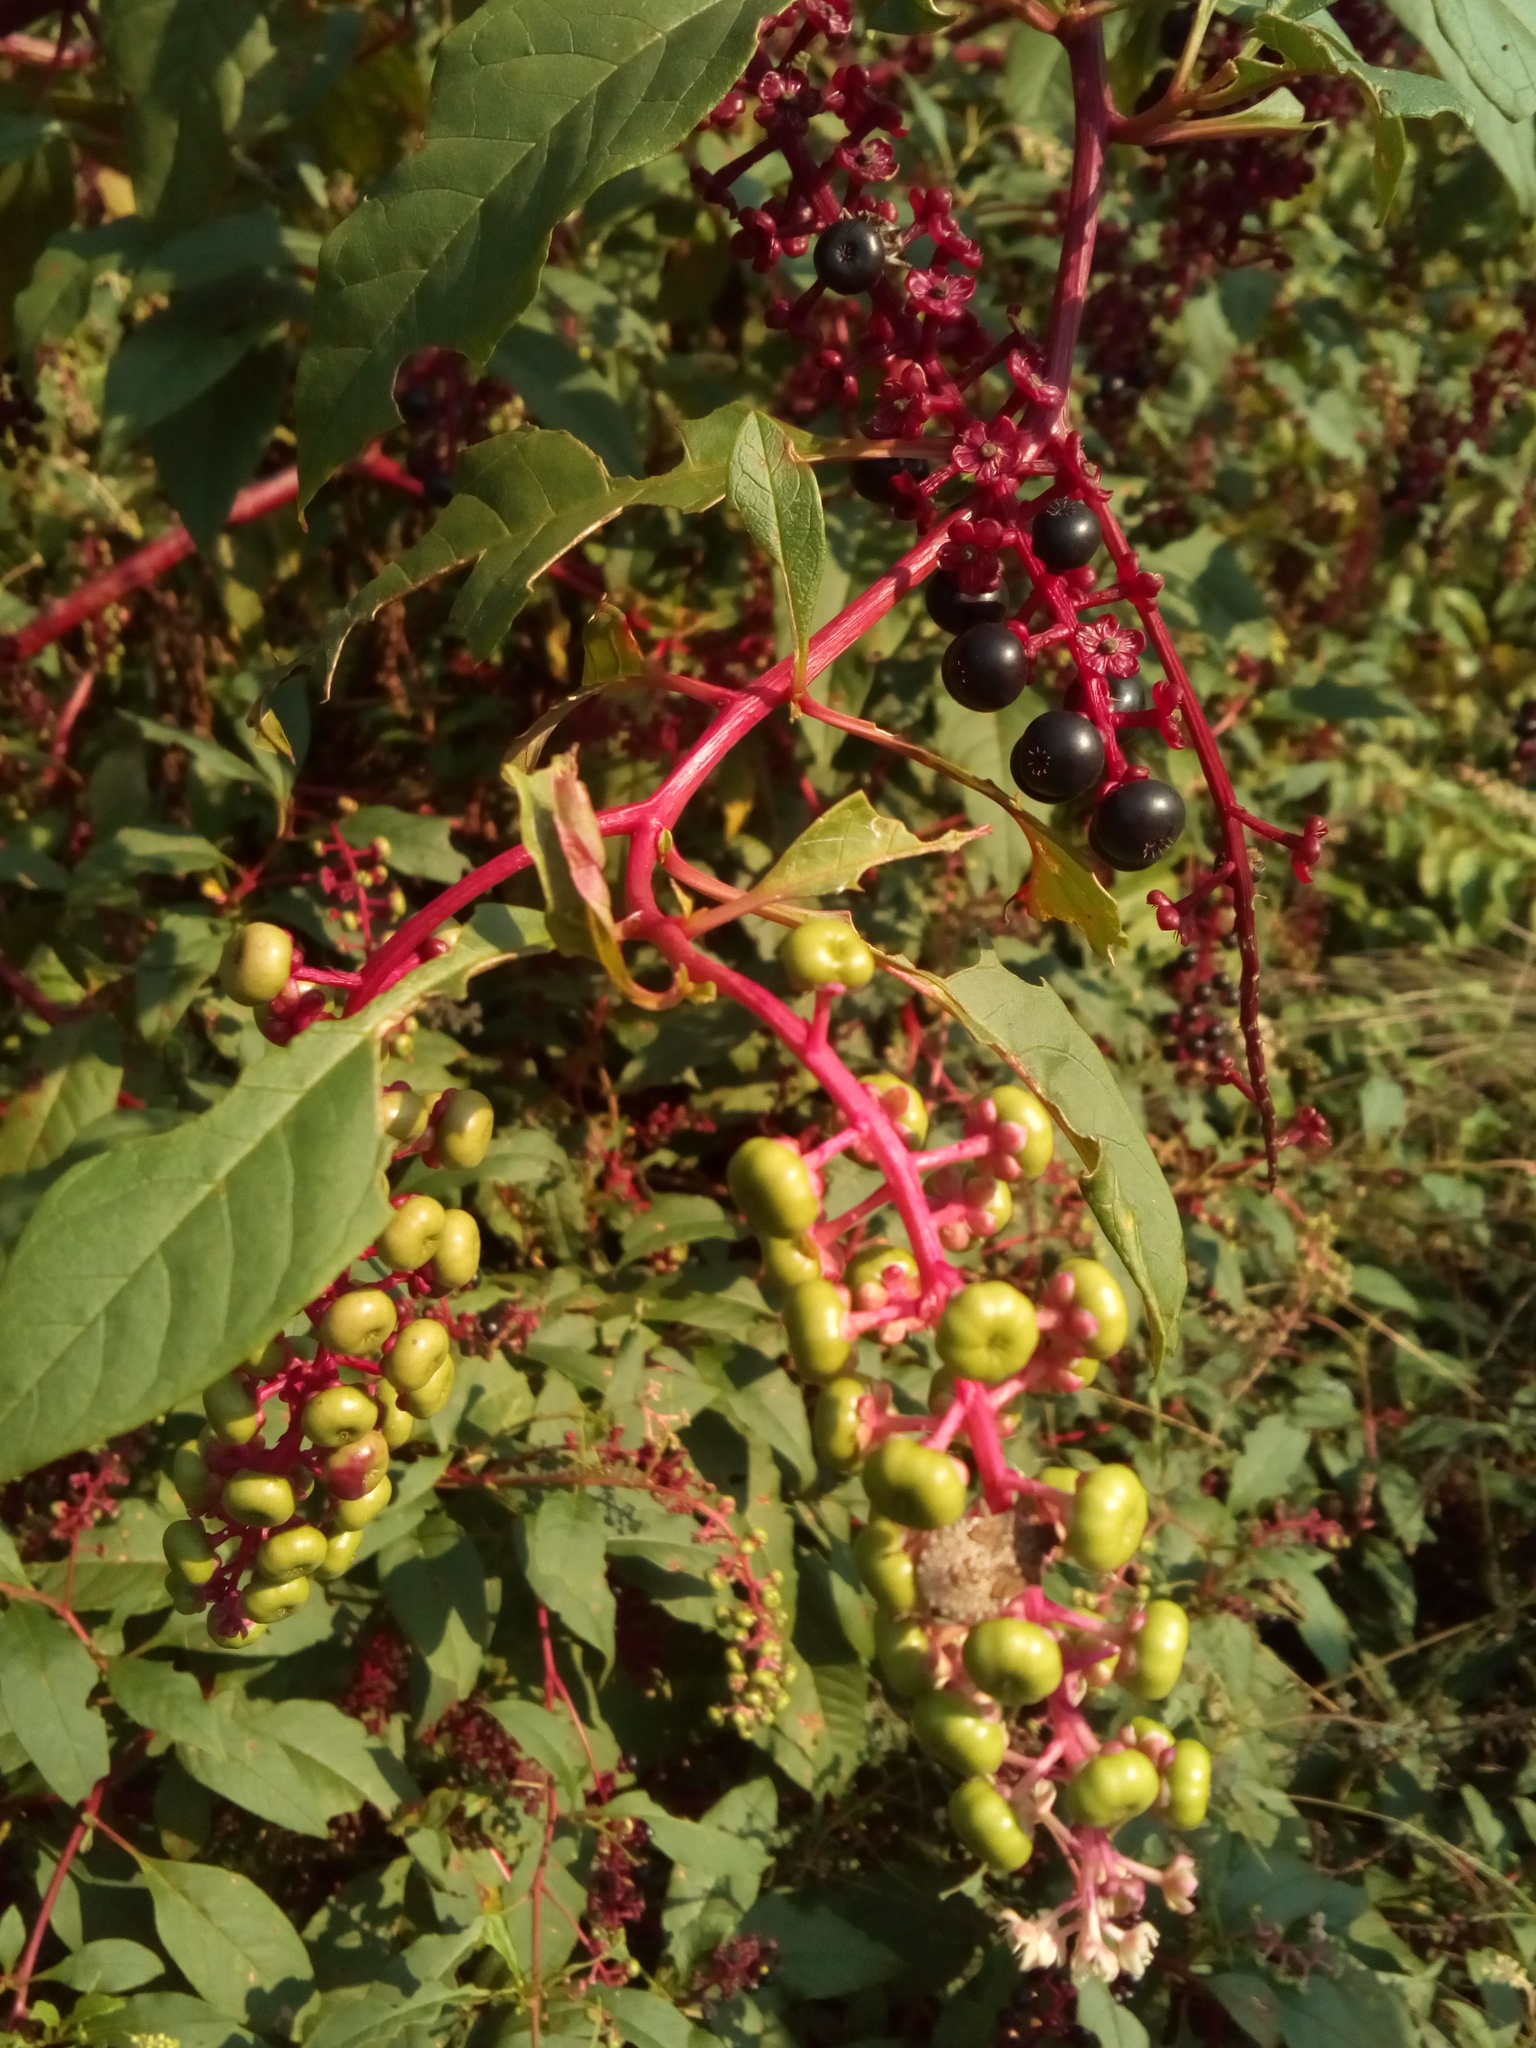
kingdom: Plantae
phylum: Tracheophyta
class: Magnoliopsida
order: Caryophyllales
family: Phytolaccaceae
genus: Phytolacca
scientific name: Phytolacca americana
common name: American pokeweed
